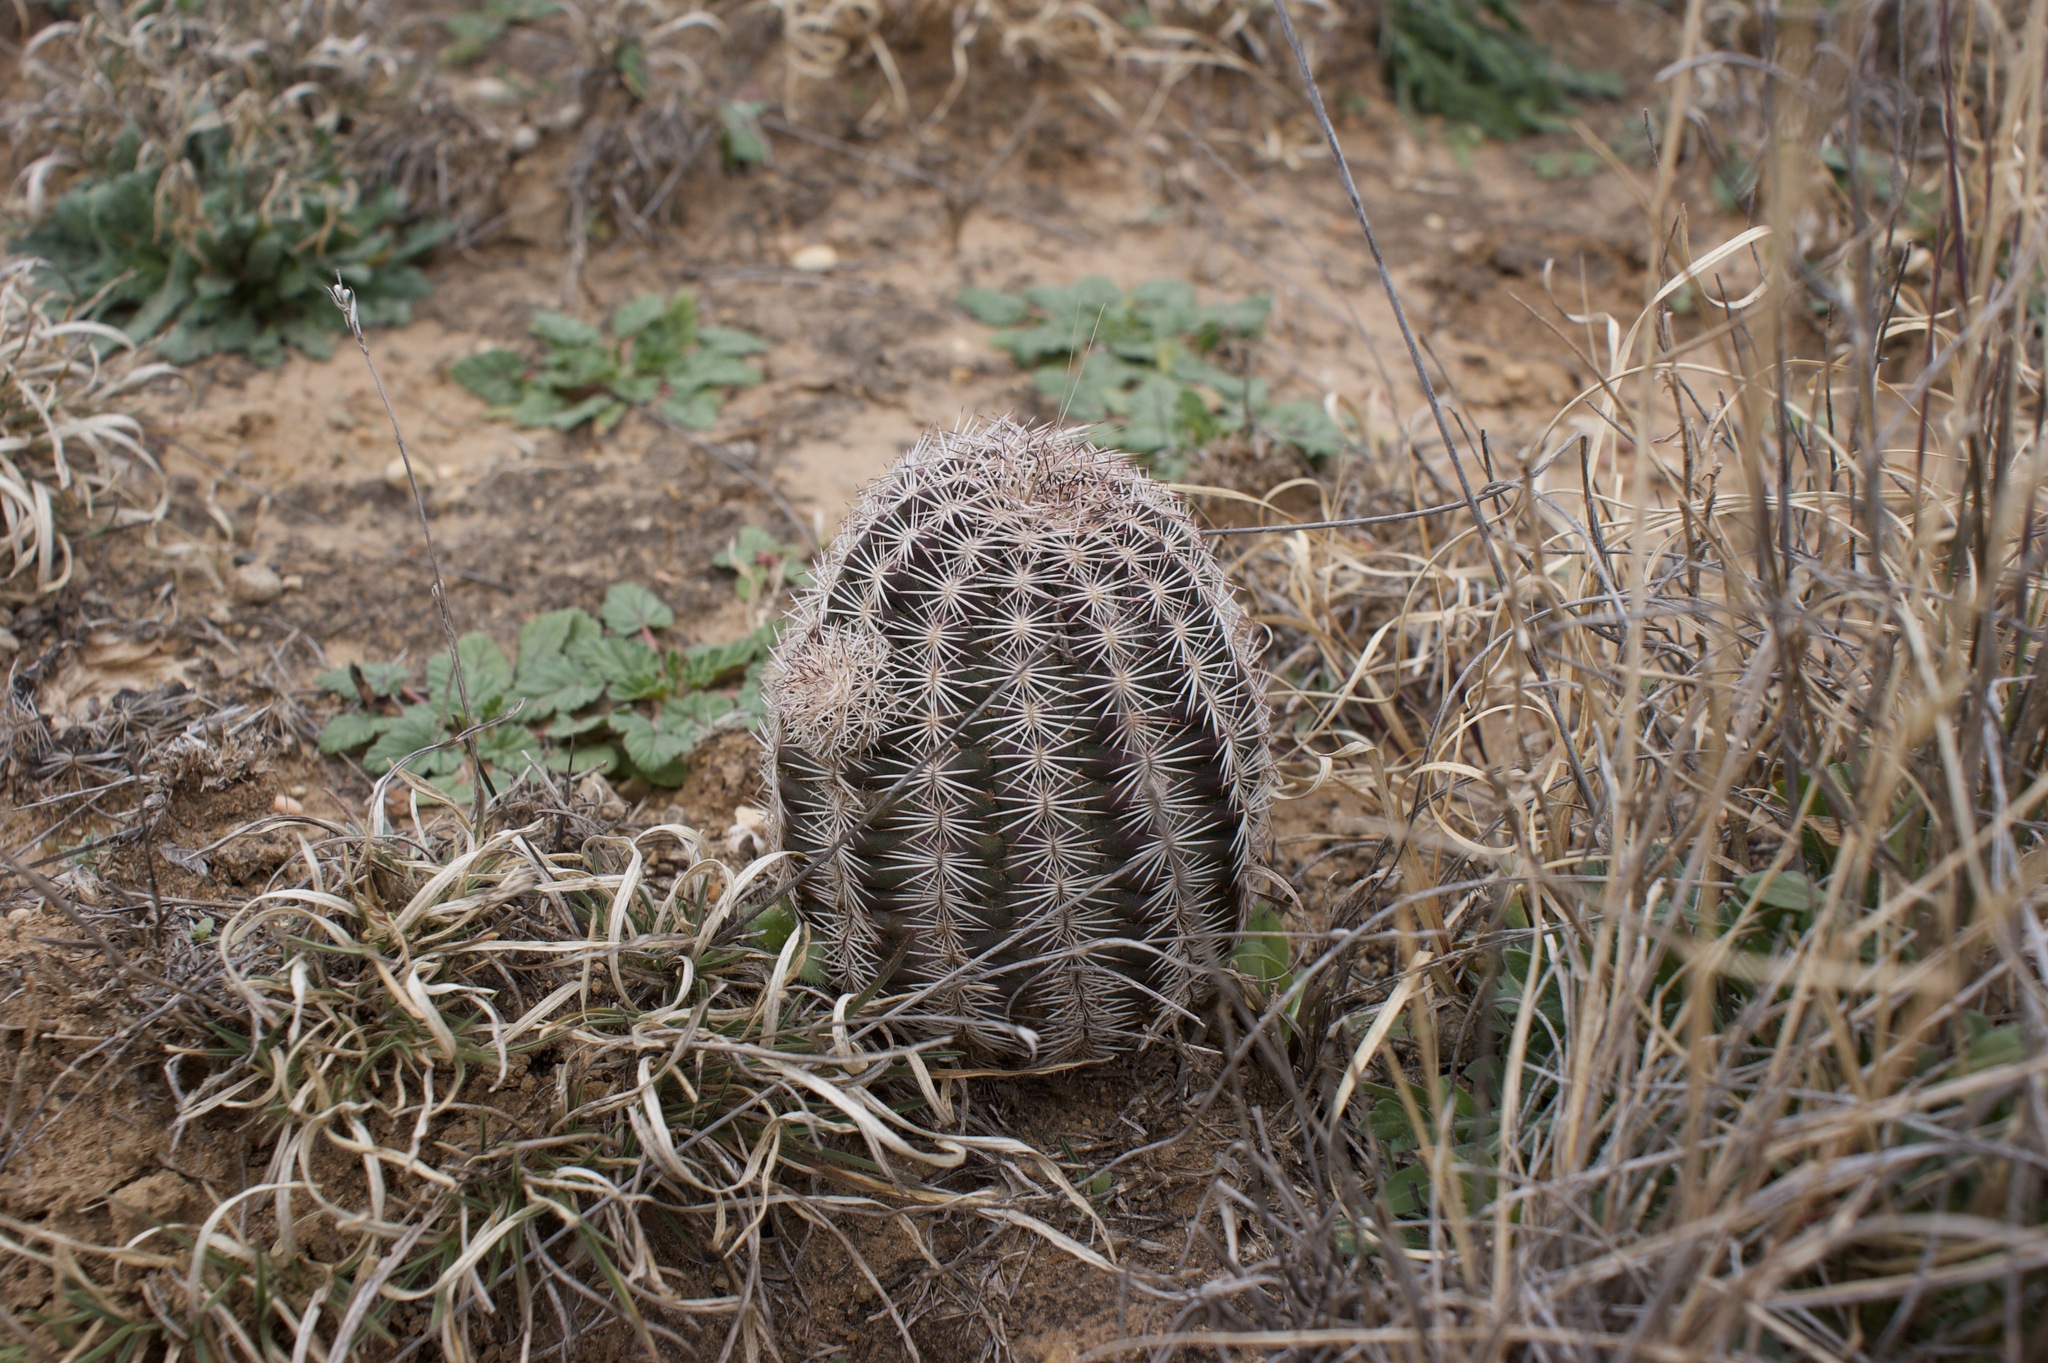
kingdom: Plantae
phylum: Tracheophyta
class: Magnoliopsida
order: Caryophyllales
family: Cactaceae
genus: Echinocereus
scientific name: Echinocereus reichenbachii
